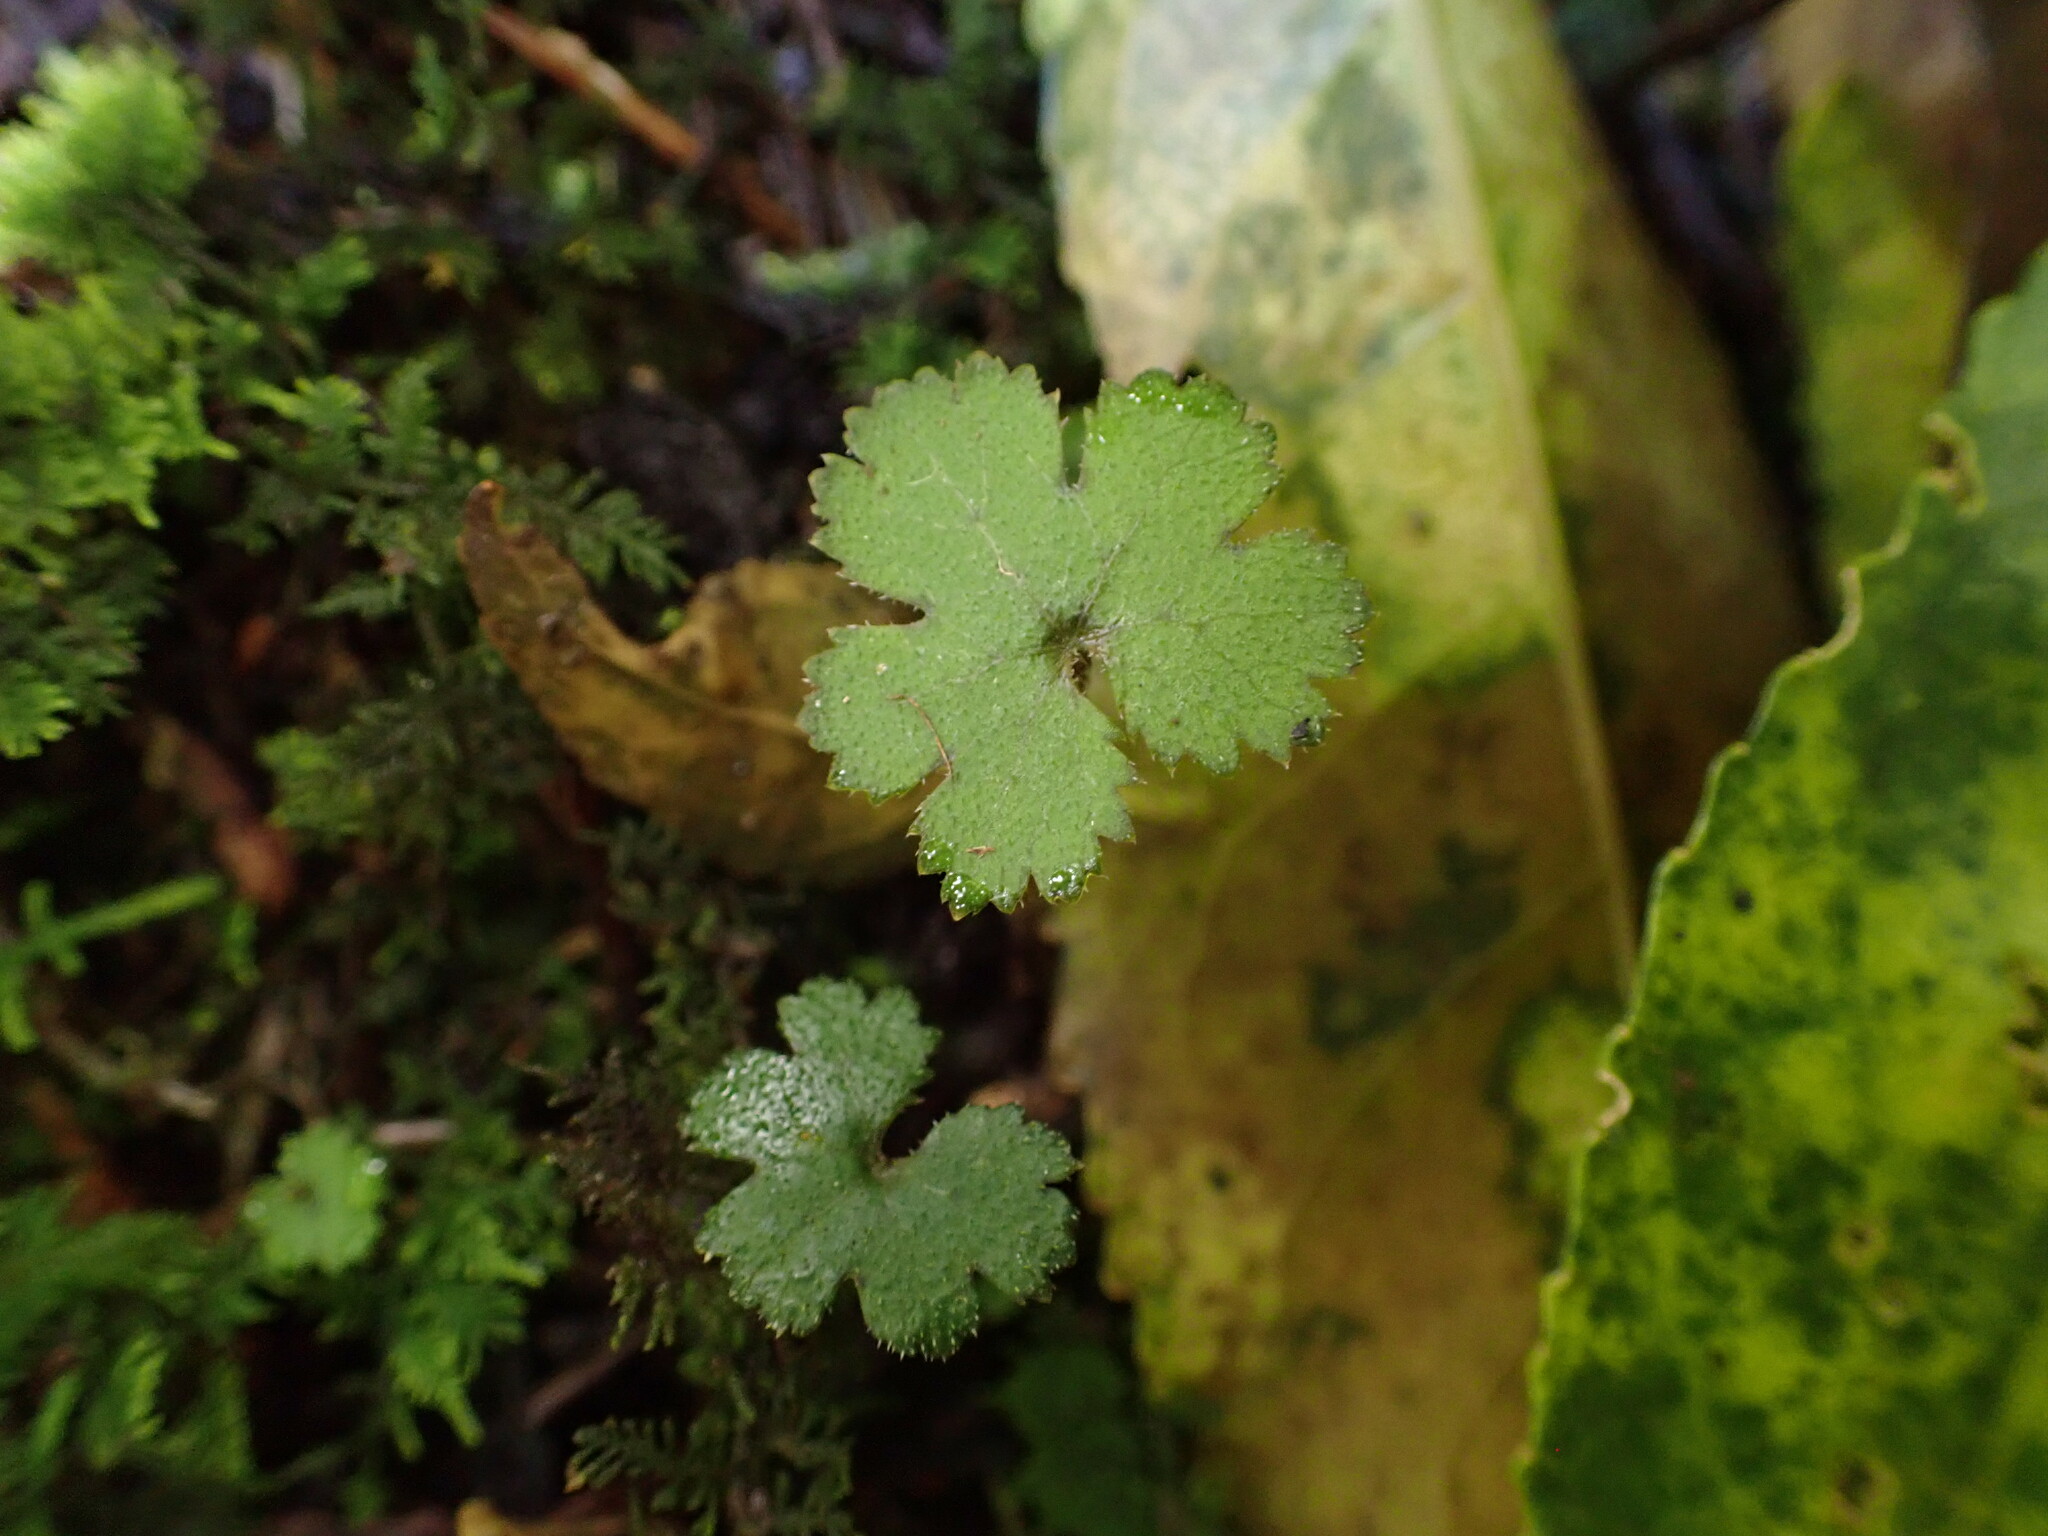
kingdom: Plantae
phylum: Tracheophyta
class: Magnoliopsida
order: Apiales
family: Araliaceae
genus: Hydrocotyle
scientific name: Hydrocotyle elongata
